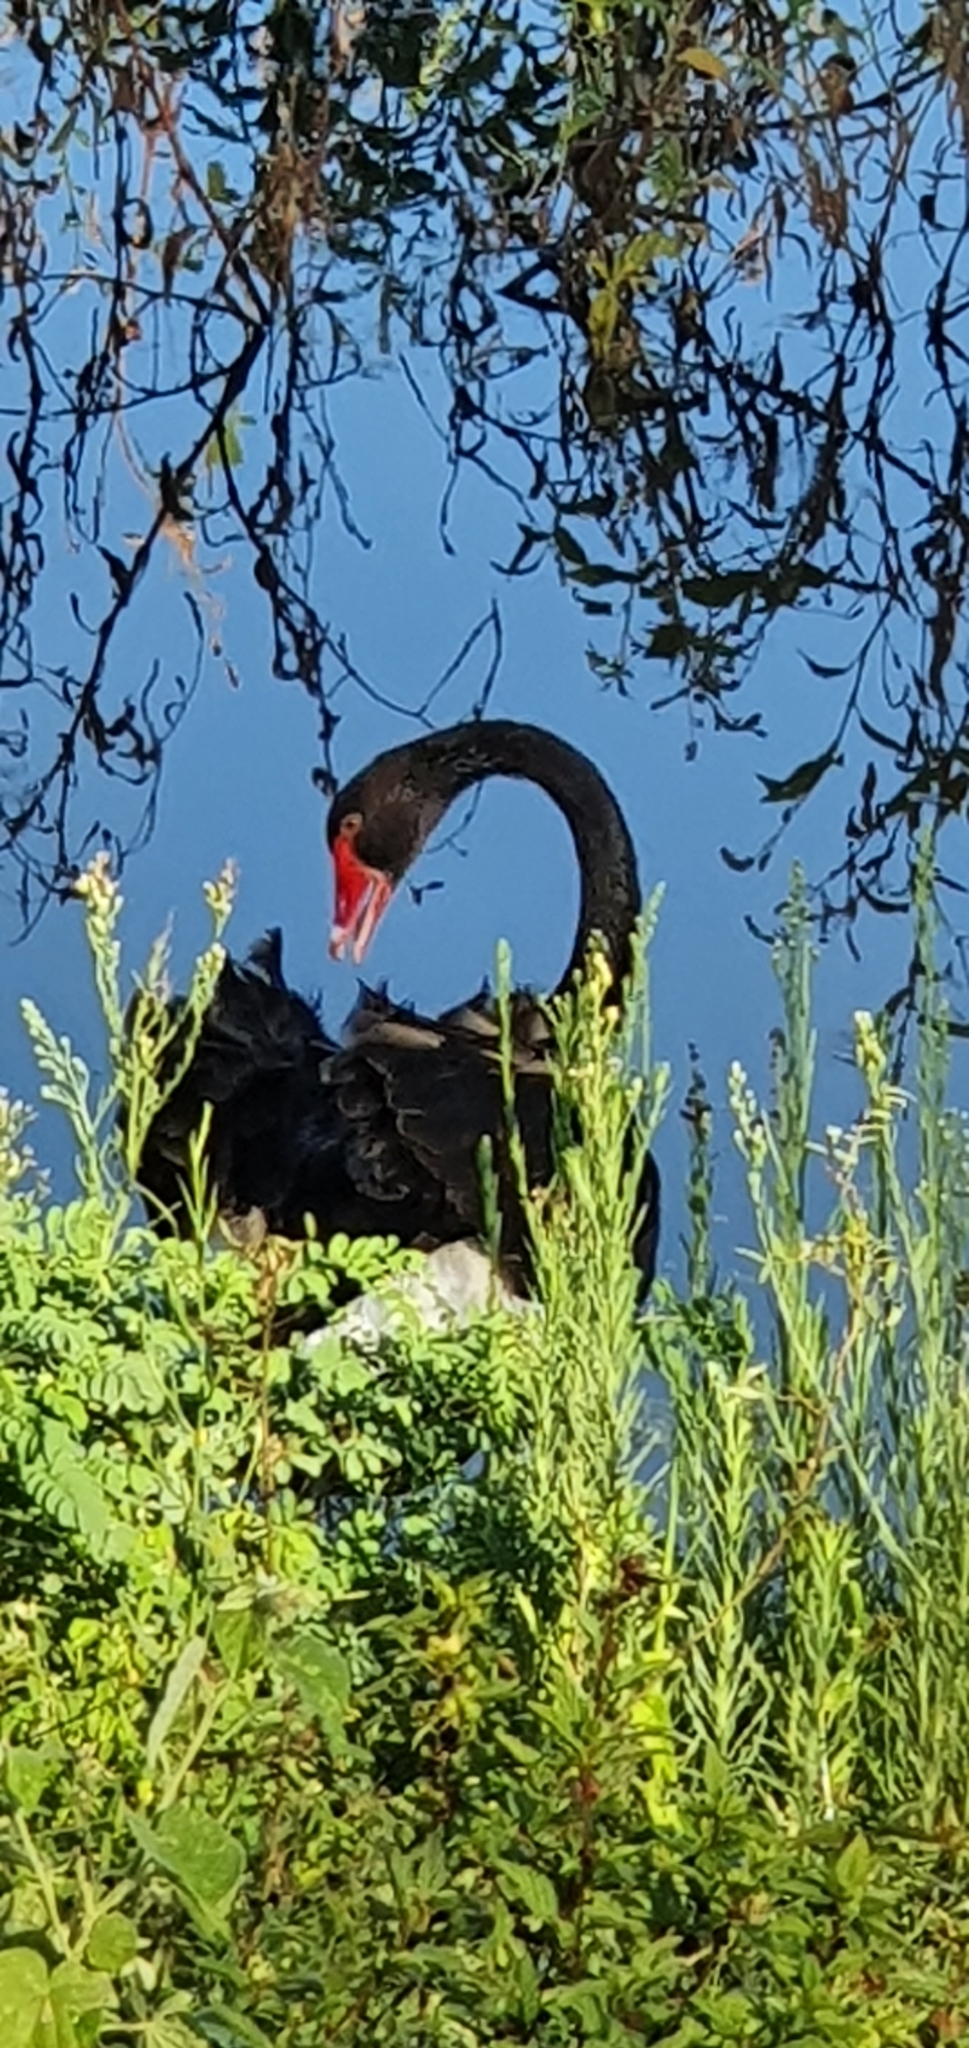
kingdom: Animalia
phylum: Chordata
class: Aves
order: Anseriformes
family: Anatidae
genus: Cygnus
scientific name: Cygnus atratus
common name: Black swan
